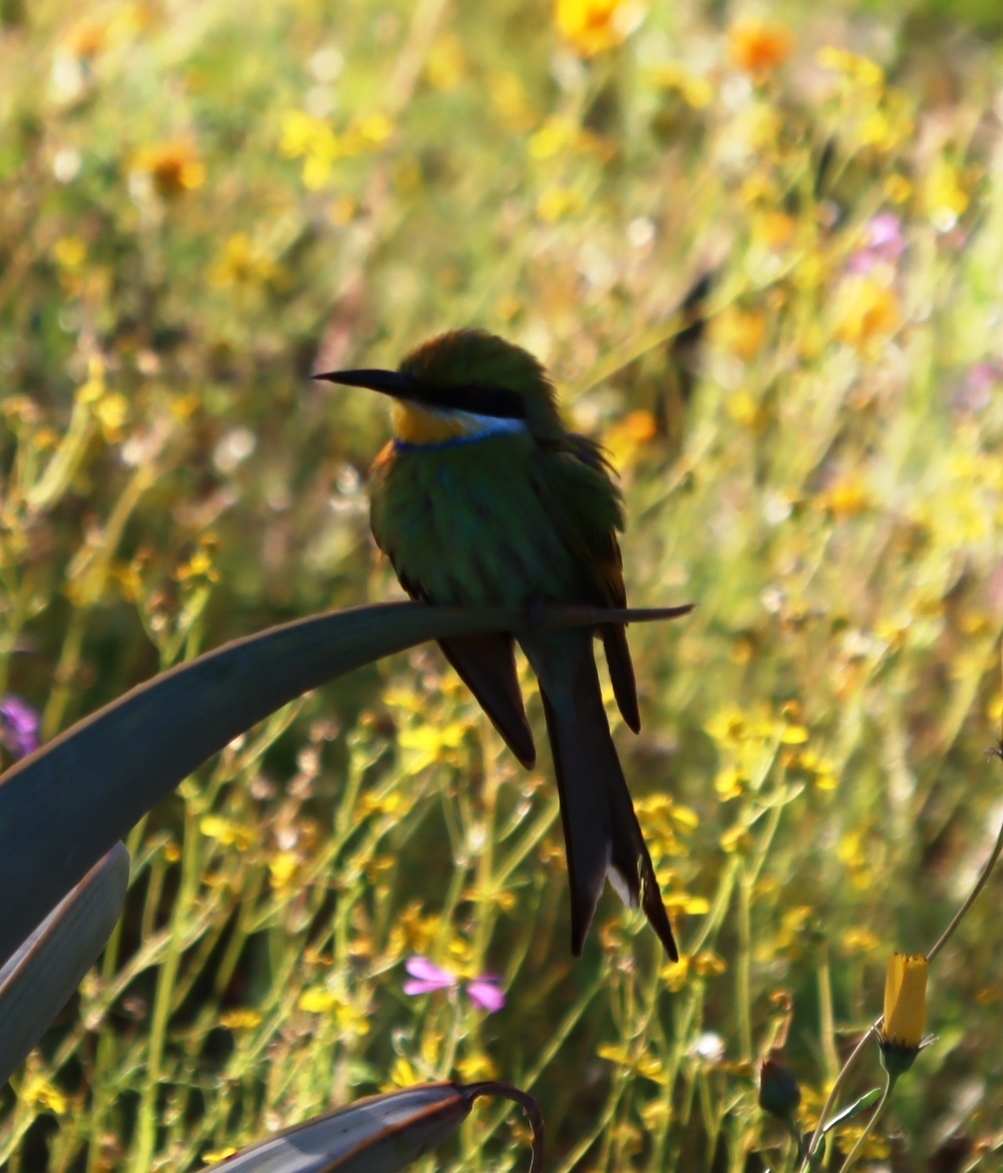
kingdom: Animalia
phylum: Chordata
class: Aves
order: Coraciiformes
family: Meropidae
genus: Merops
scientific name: Merops hirundineus
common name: Swallow-tailed bee-eater
